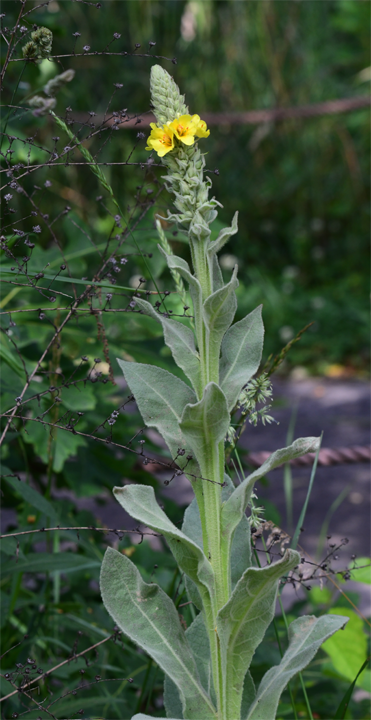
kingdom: Plantae
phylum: Tracheophyta
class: Magnoliopsida
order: Lamiales
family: Scrophulariaceae
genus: Verbascum
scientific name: Verbascum thapsus
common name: Common mullein
